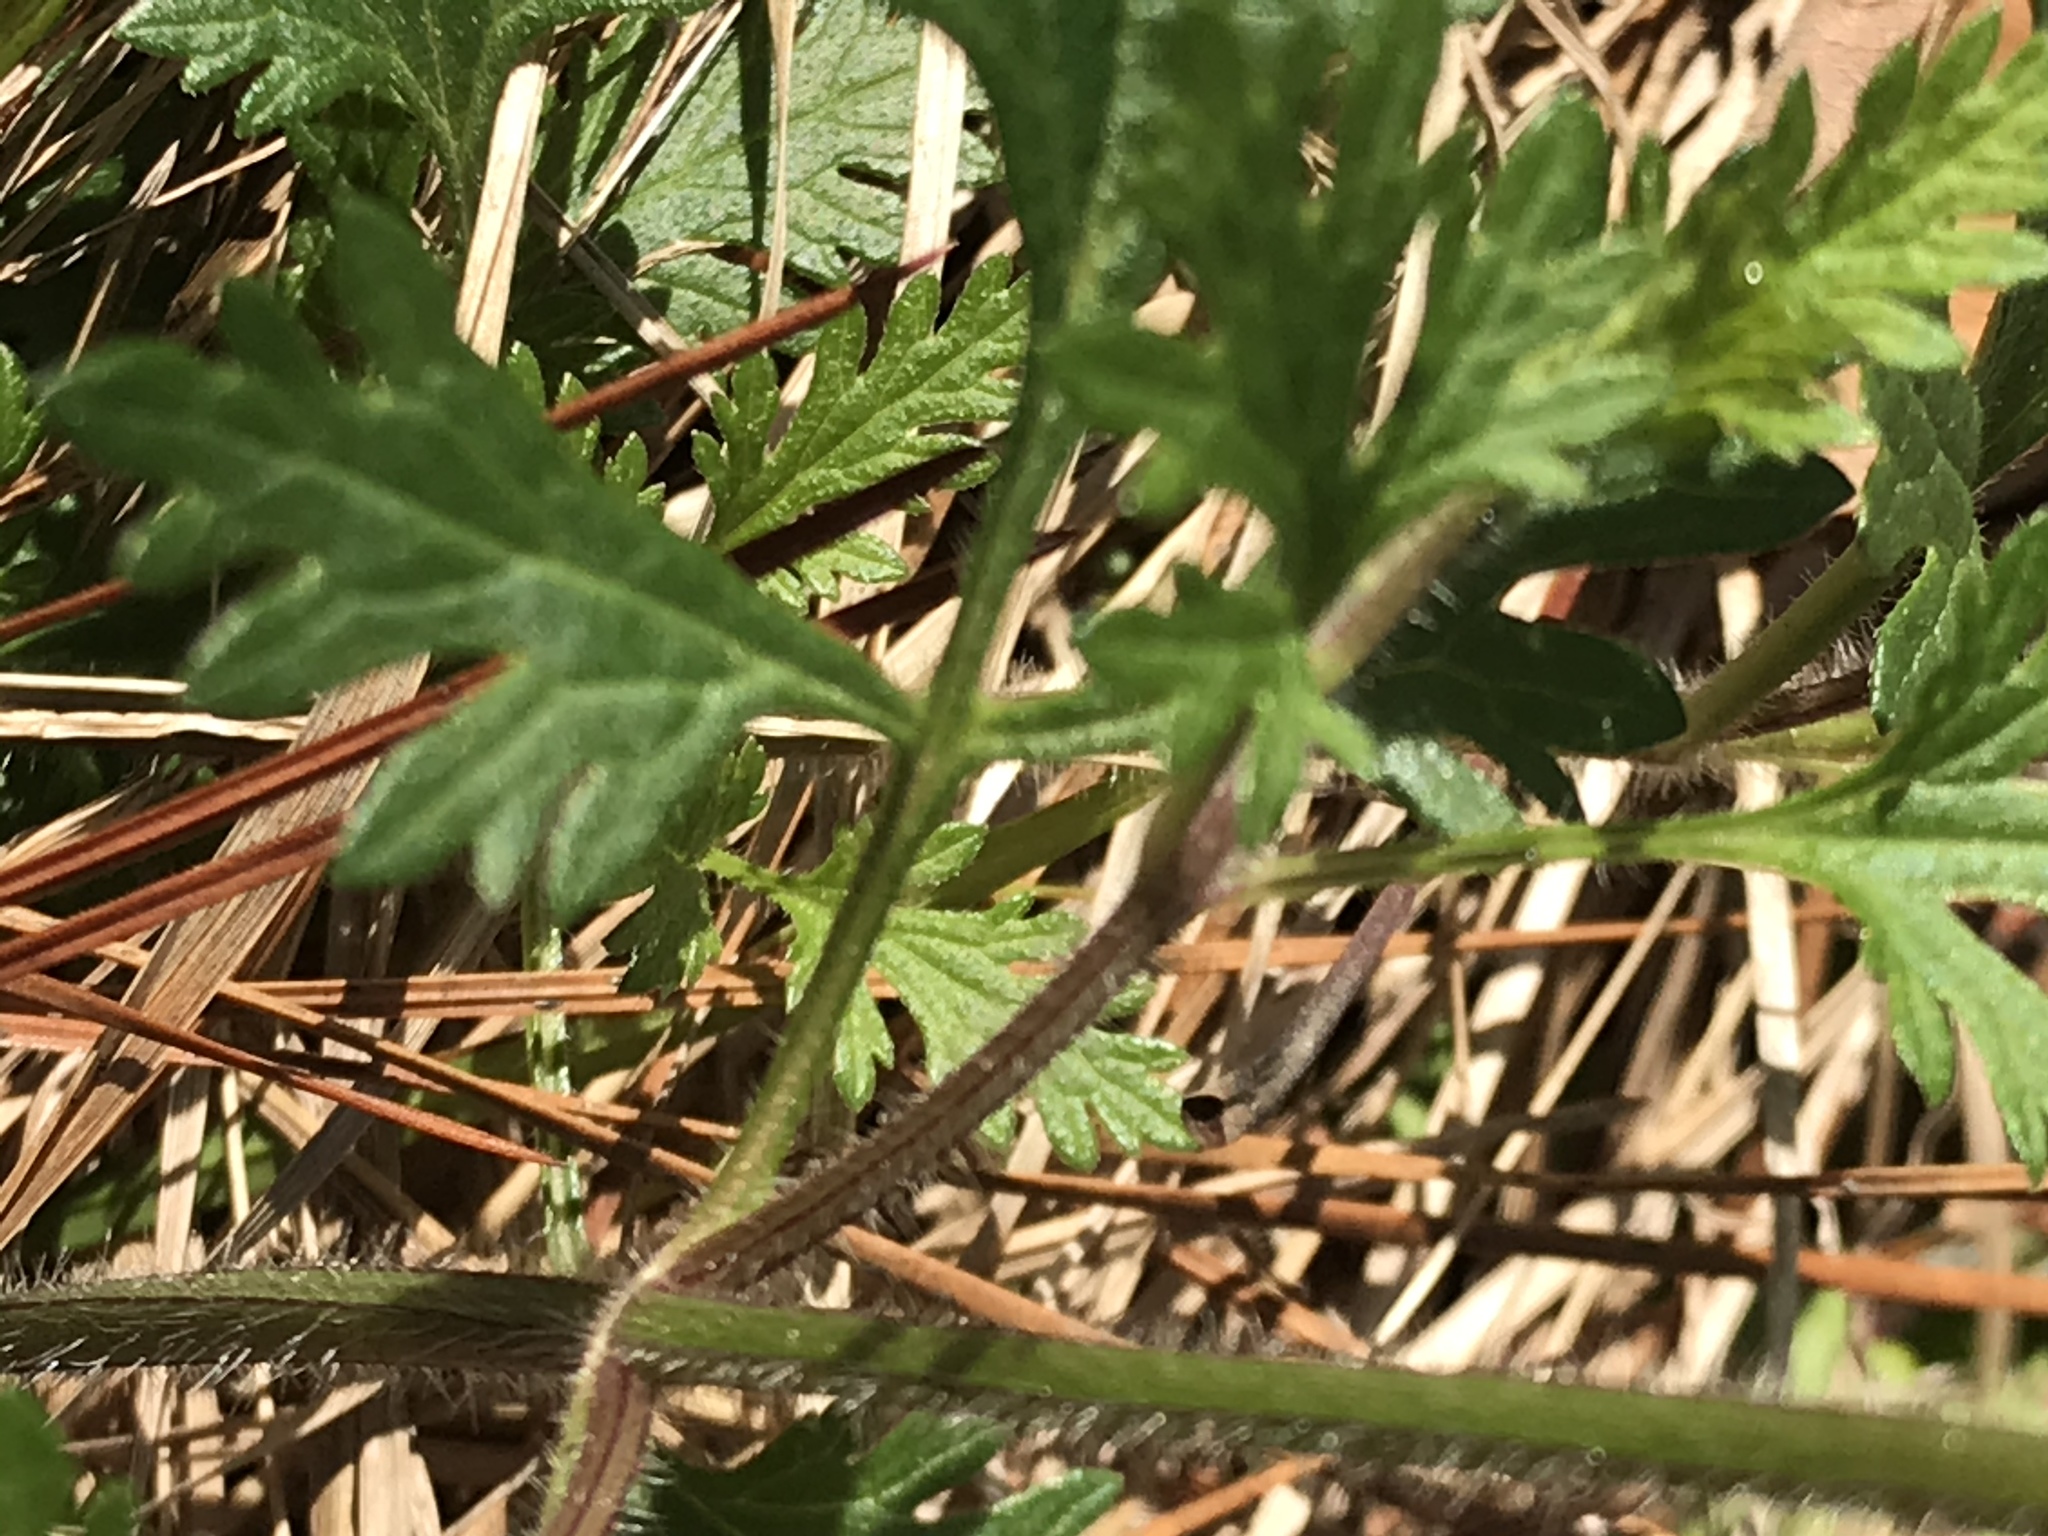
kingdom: Plantae
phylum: Tracheophyta
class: Magnoliopsida
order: Lamiales
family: Verbenaceae
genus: Verbena
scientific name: Verbena canadensis
